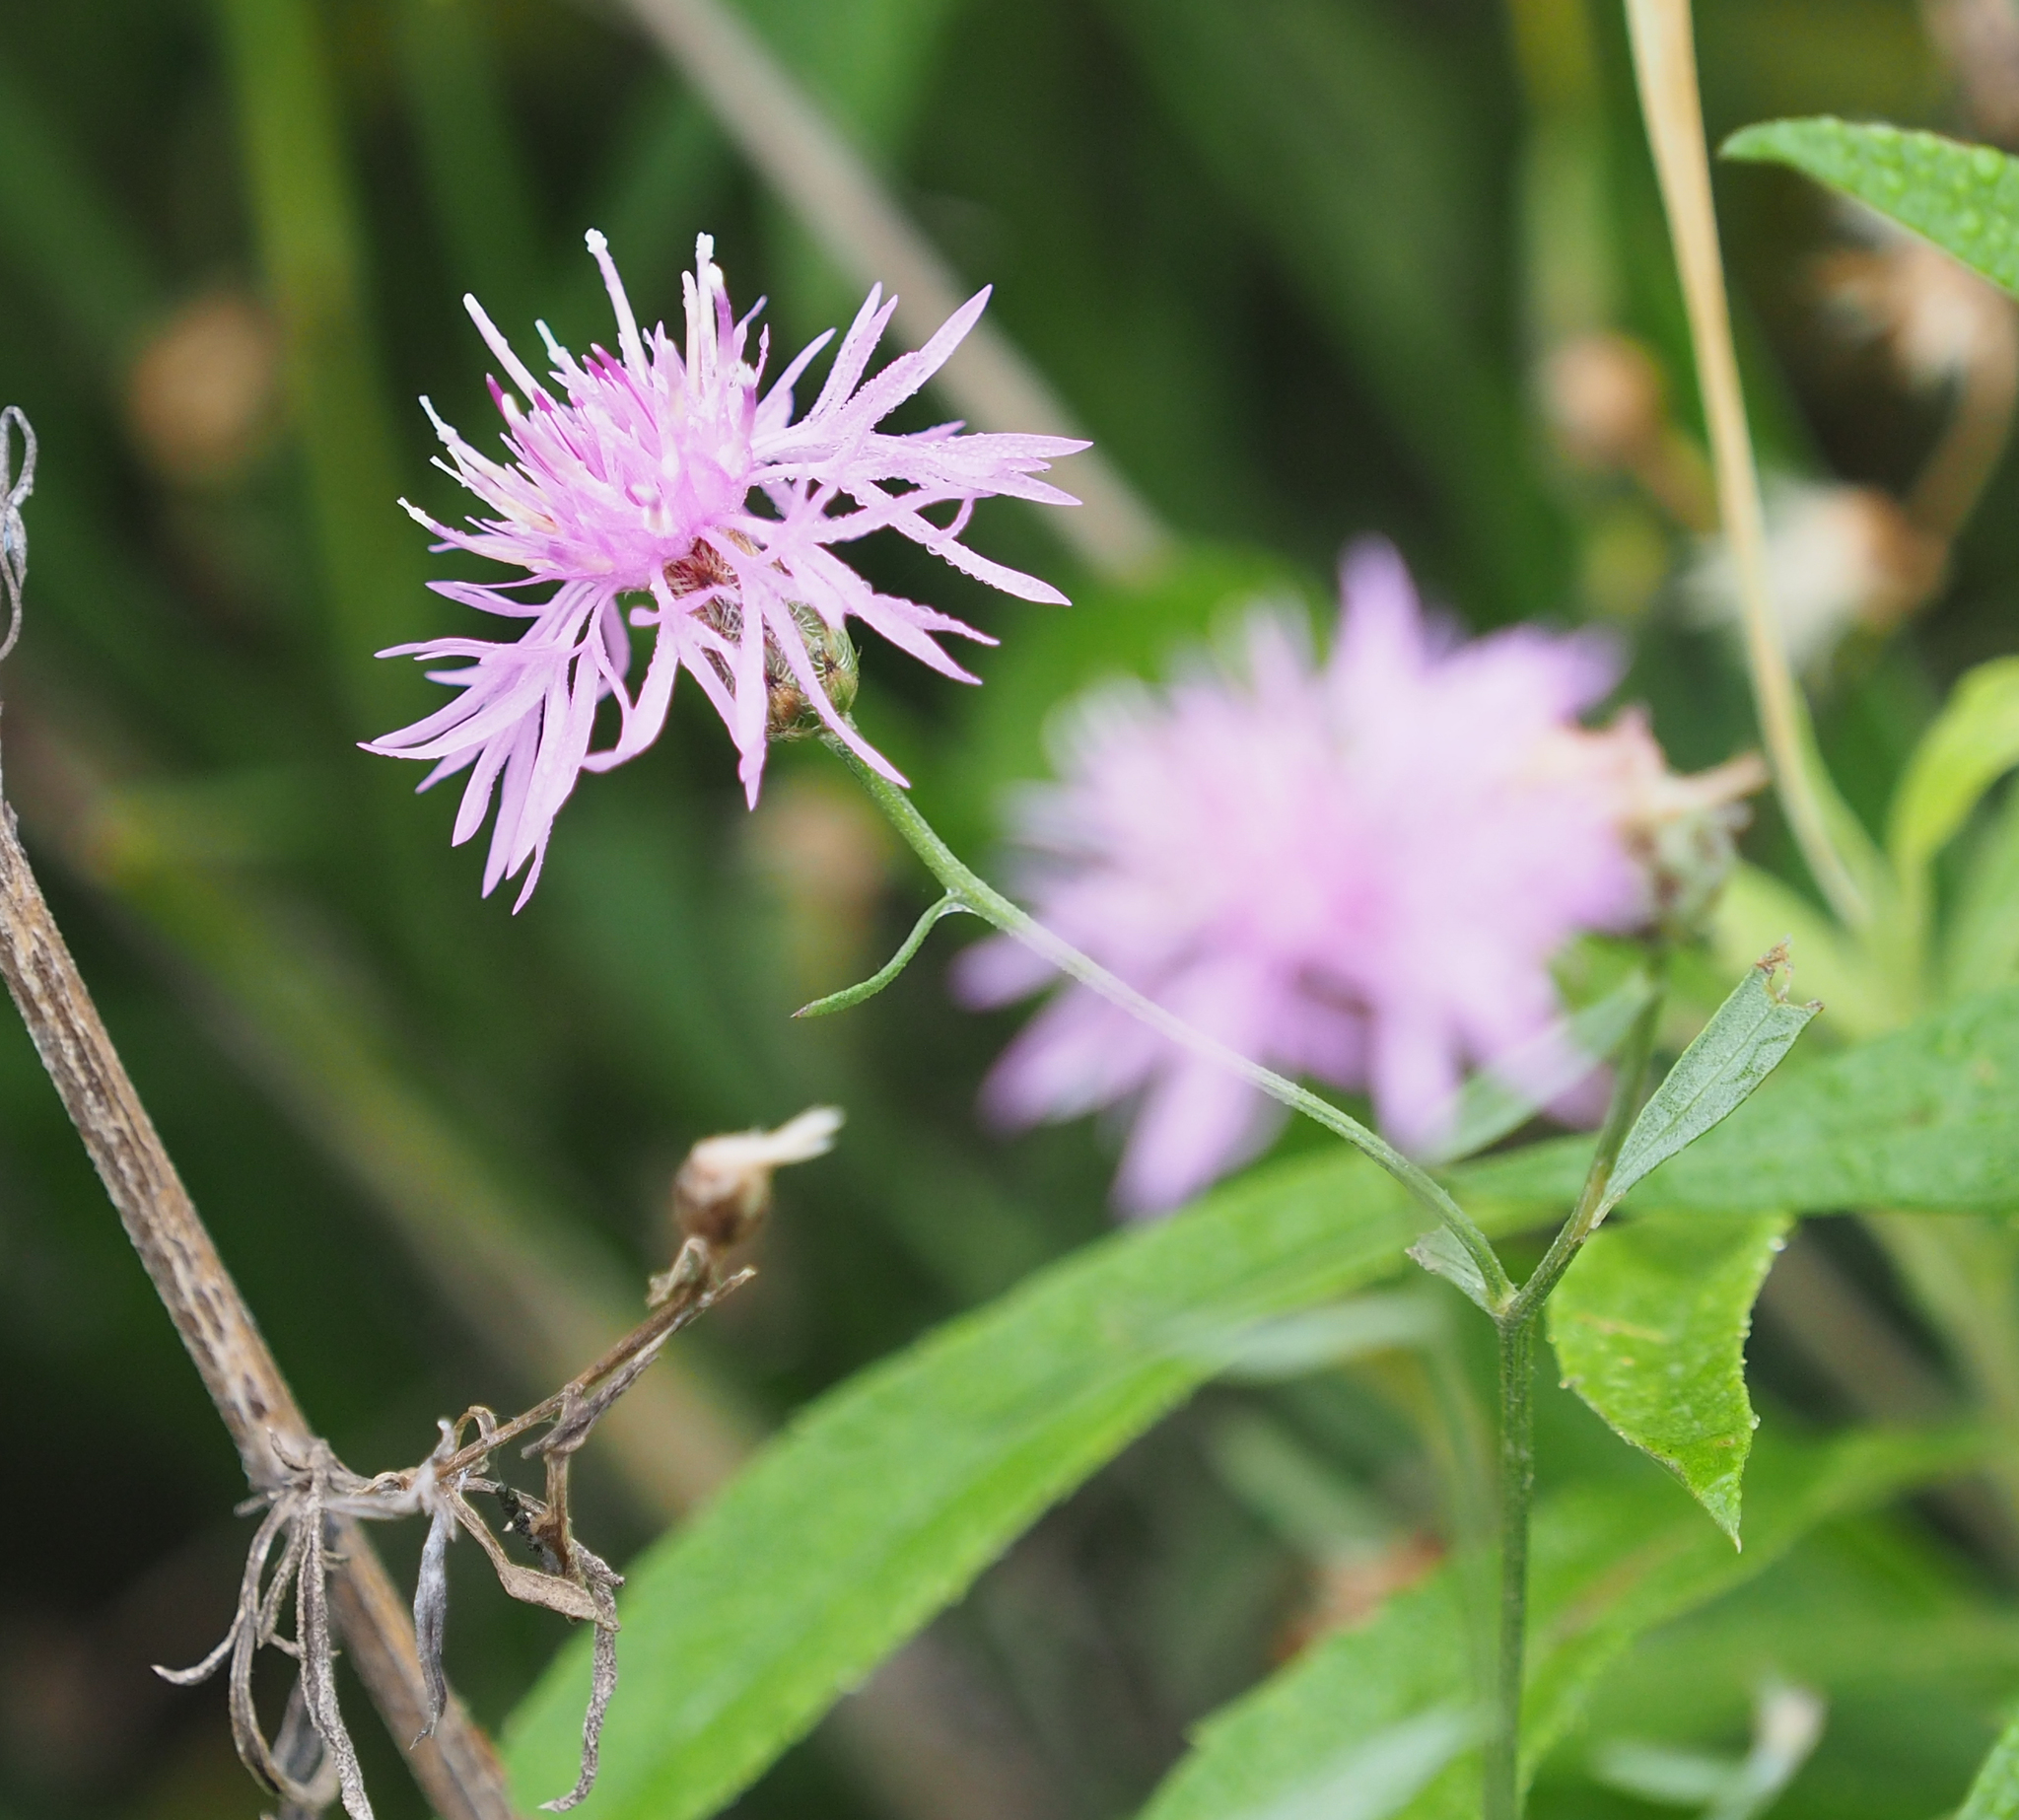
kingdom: Plantae
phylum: Tracheophyta
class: Magnoliopsida
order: Asterales
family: Asteraceae
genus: Centaurea
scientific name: Centaurea stoebe
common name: Spotted knapweed
